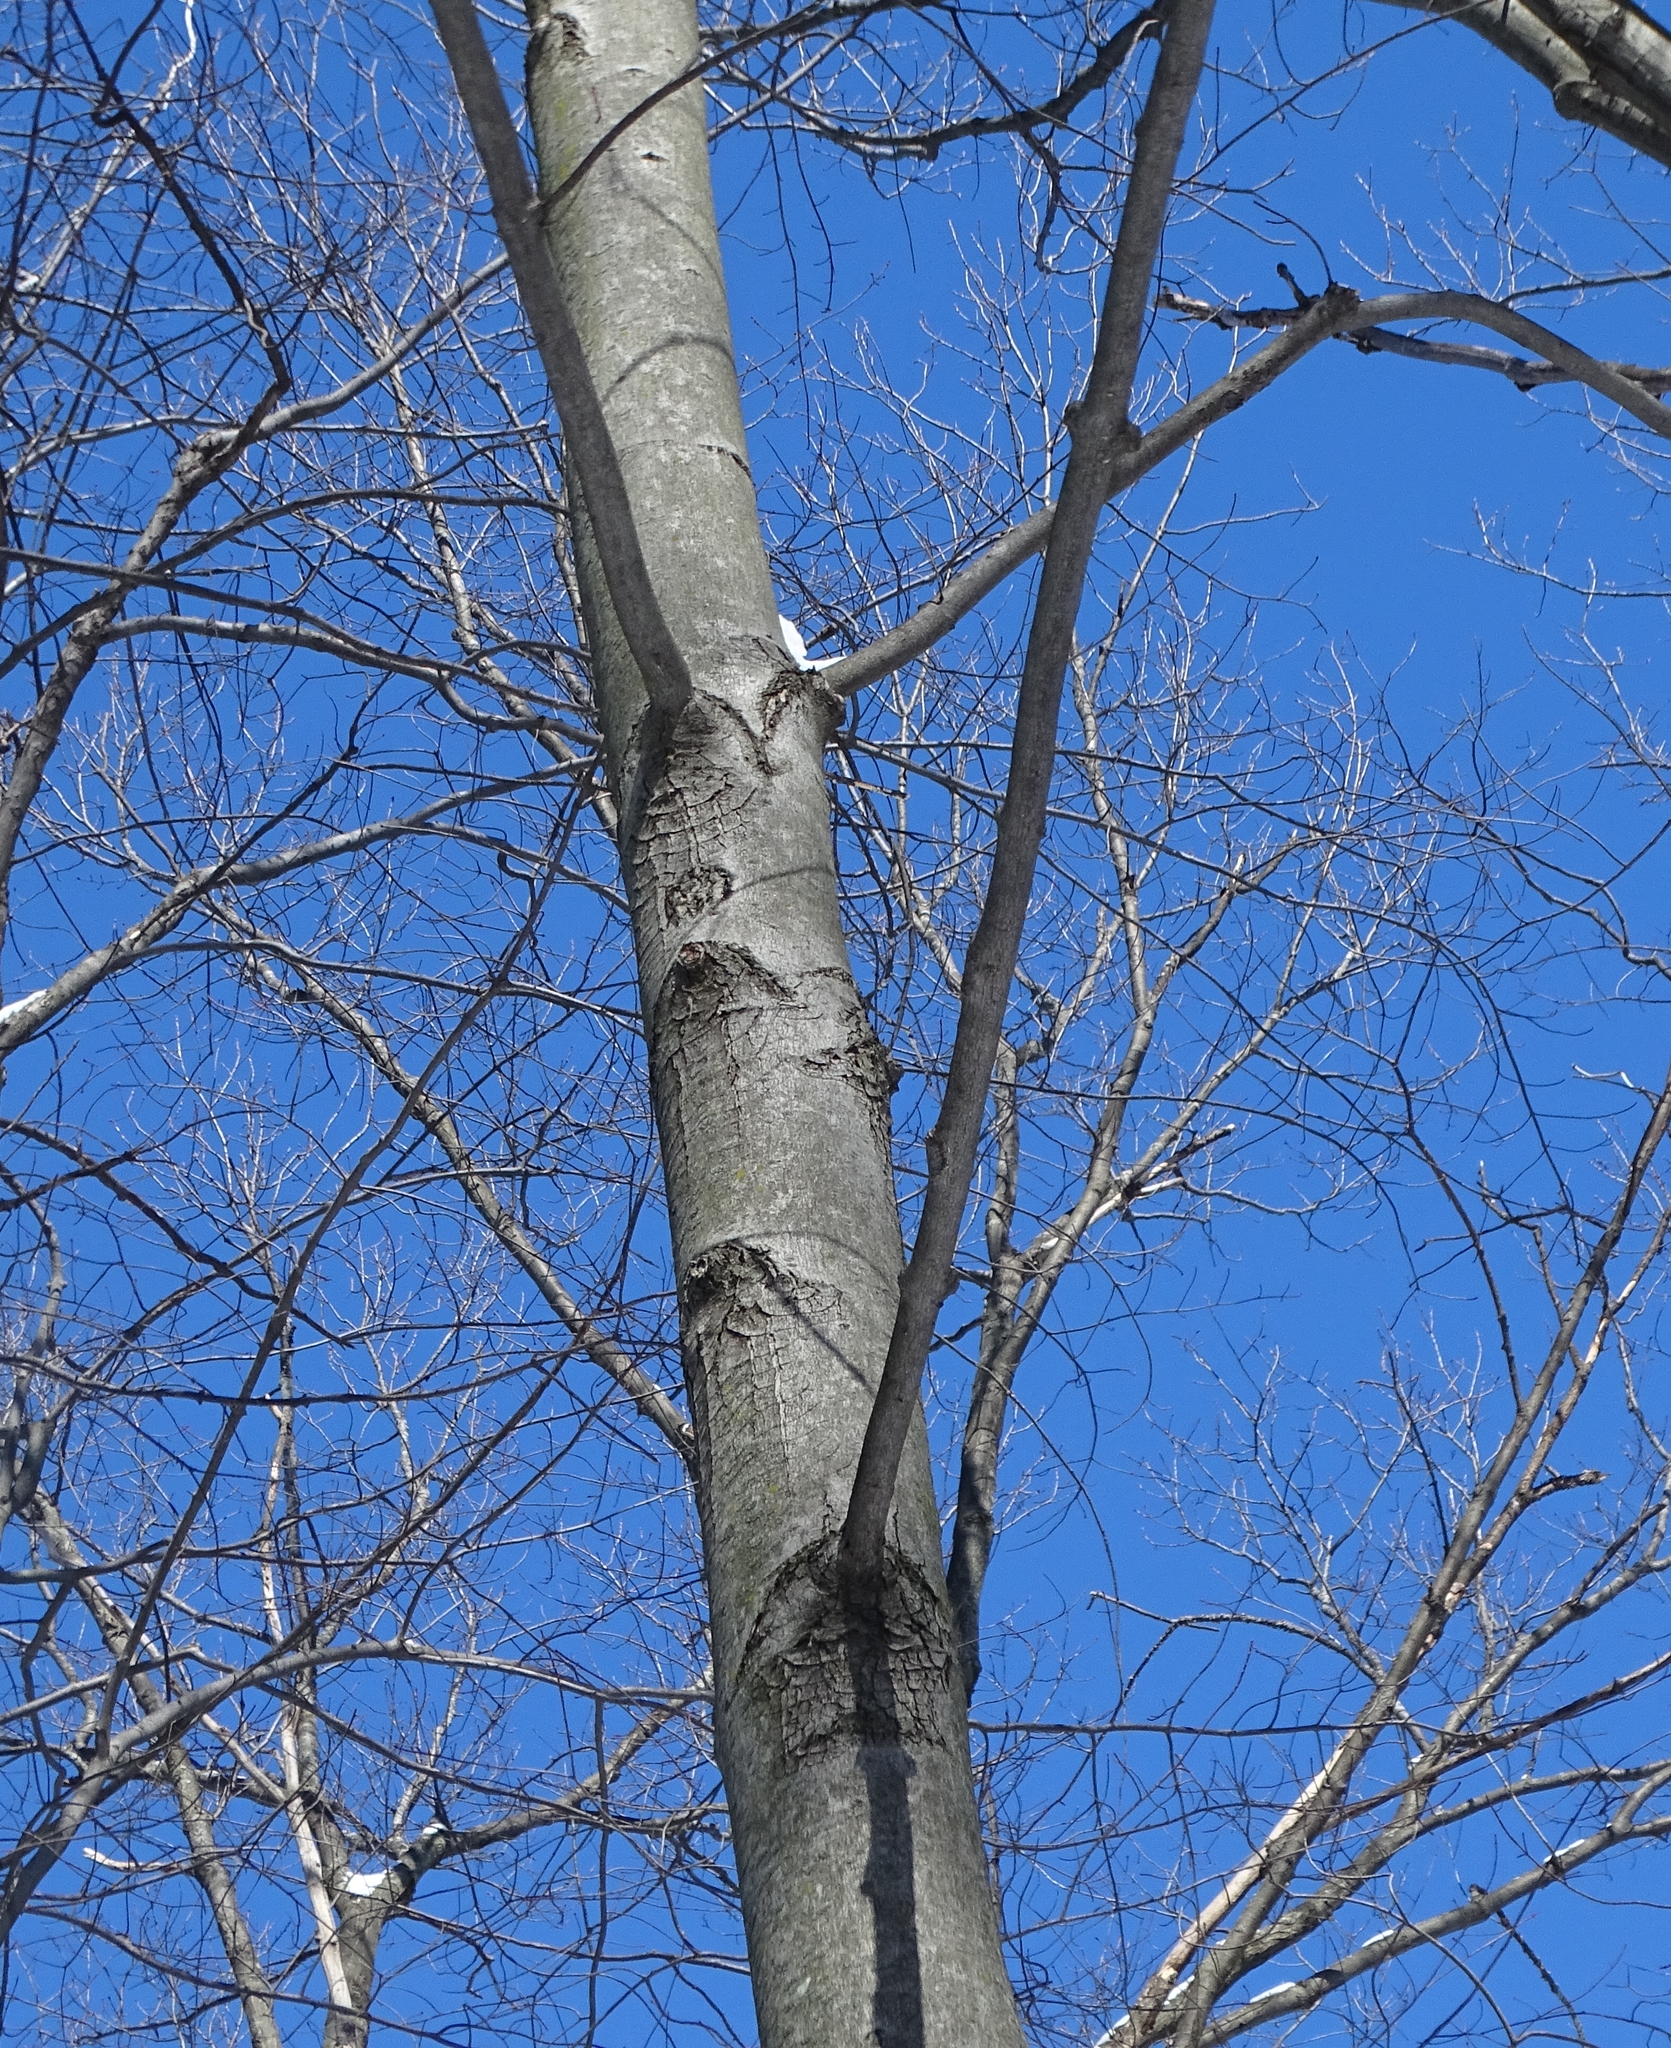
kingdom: Plantae
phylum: Tracheophyta
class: Magnoliopsida
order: Sapindales
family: Sapindaceae
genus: Acer
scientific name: Acer rubrum
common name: Red maple
